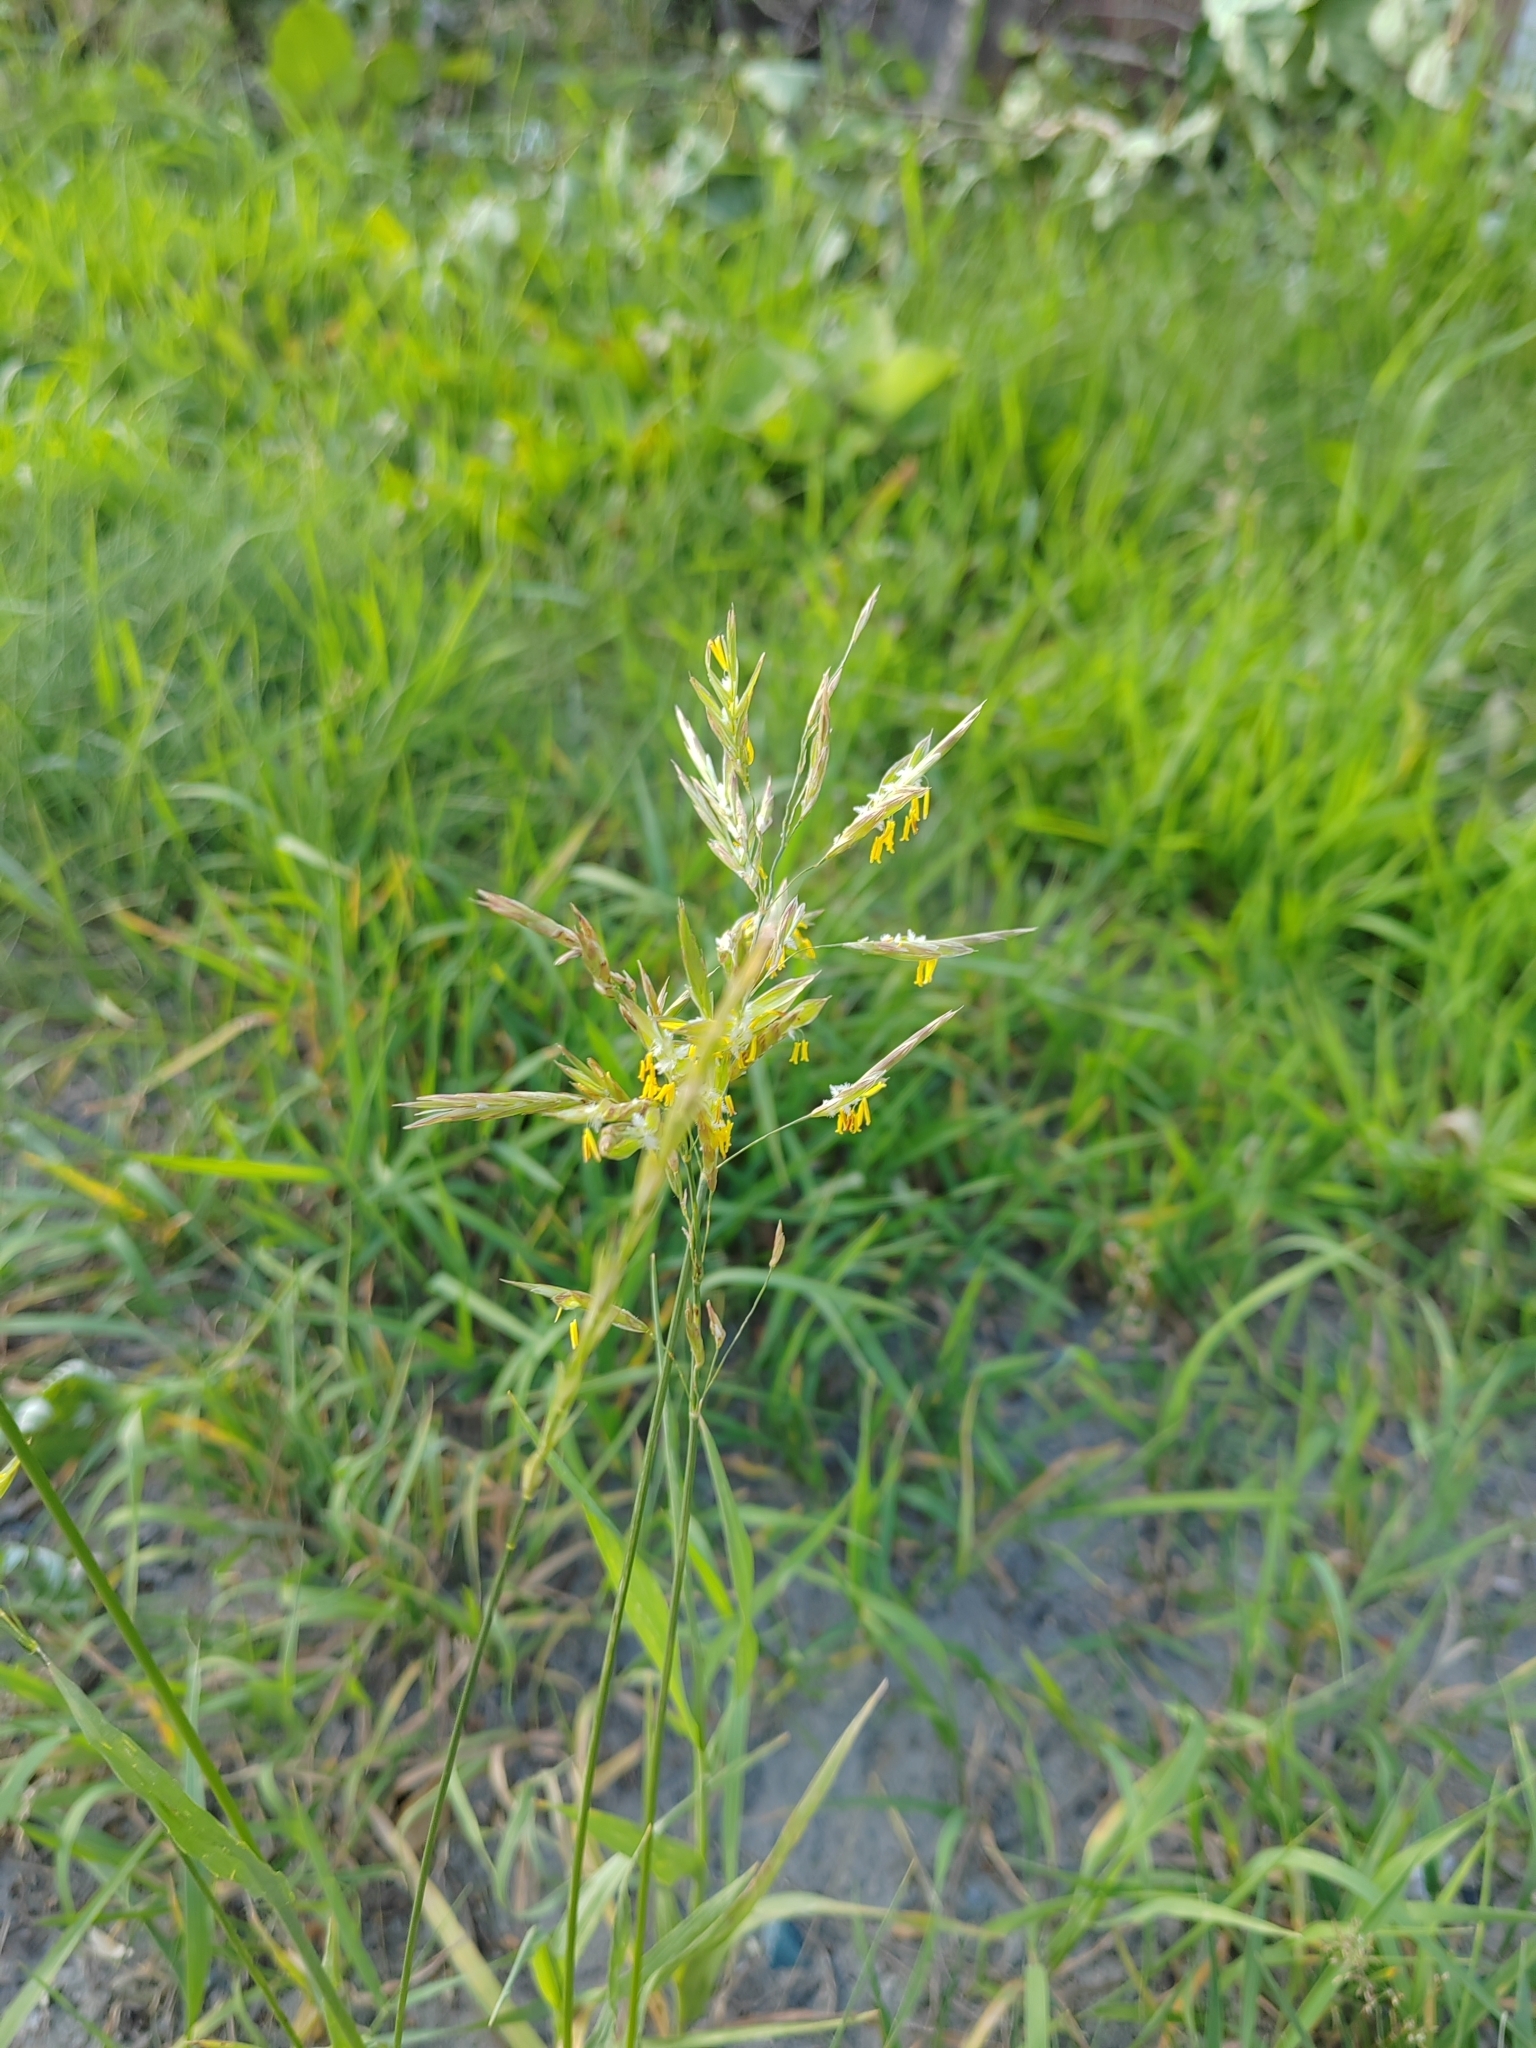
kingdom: Plantae
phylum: Tracheophyta
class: Liliopsida
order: Poales
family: Poaceae
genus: Bromus
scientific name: Bromus inermis
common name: Smooth brome
